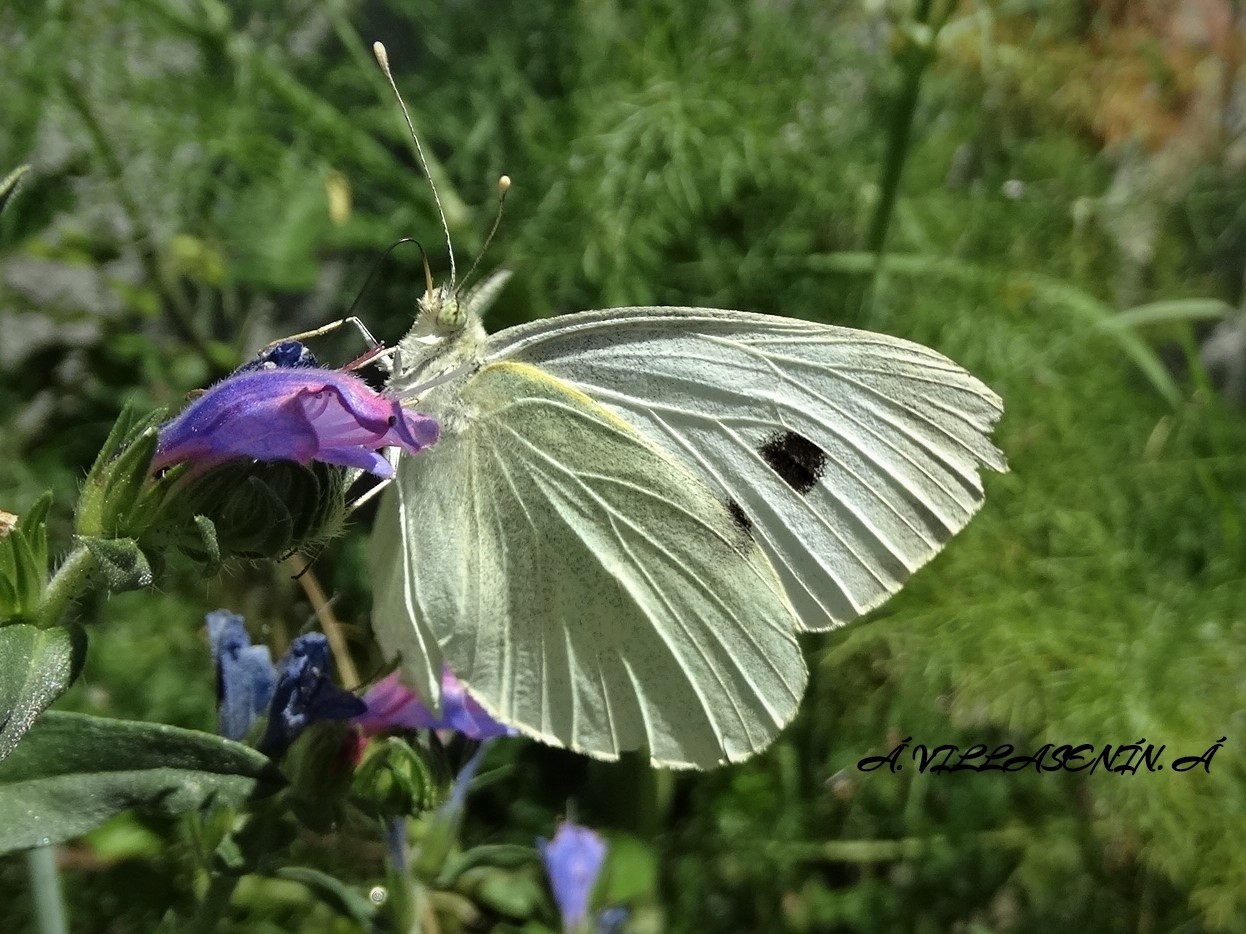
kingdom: Animalia
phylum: Arthropoda
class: Insecta
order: Lepidoptera
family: Pieridae
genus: Pieris
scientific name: Pieris brassicae
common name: Large white
